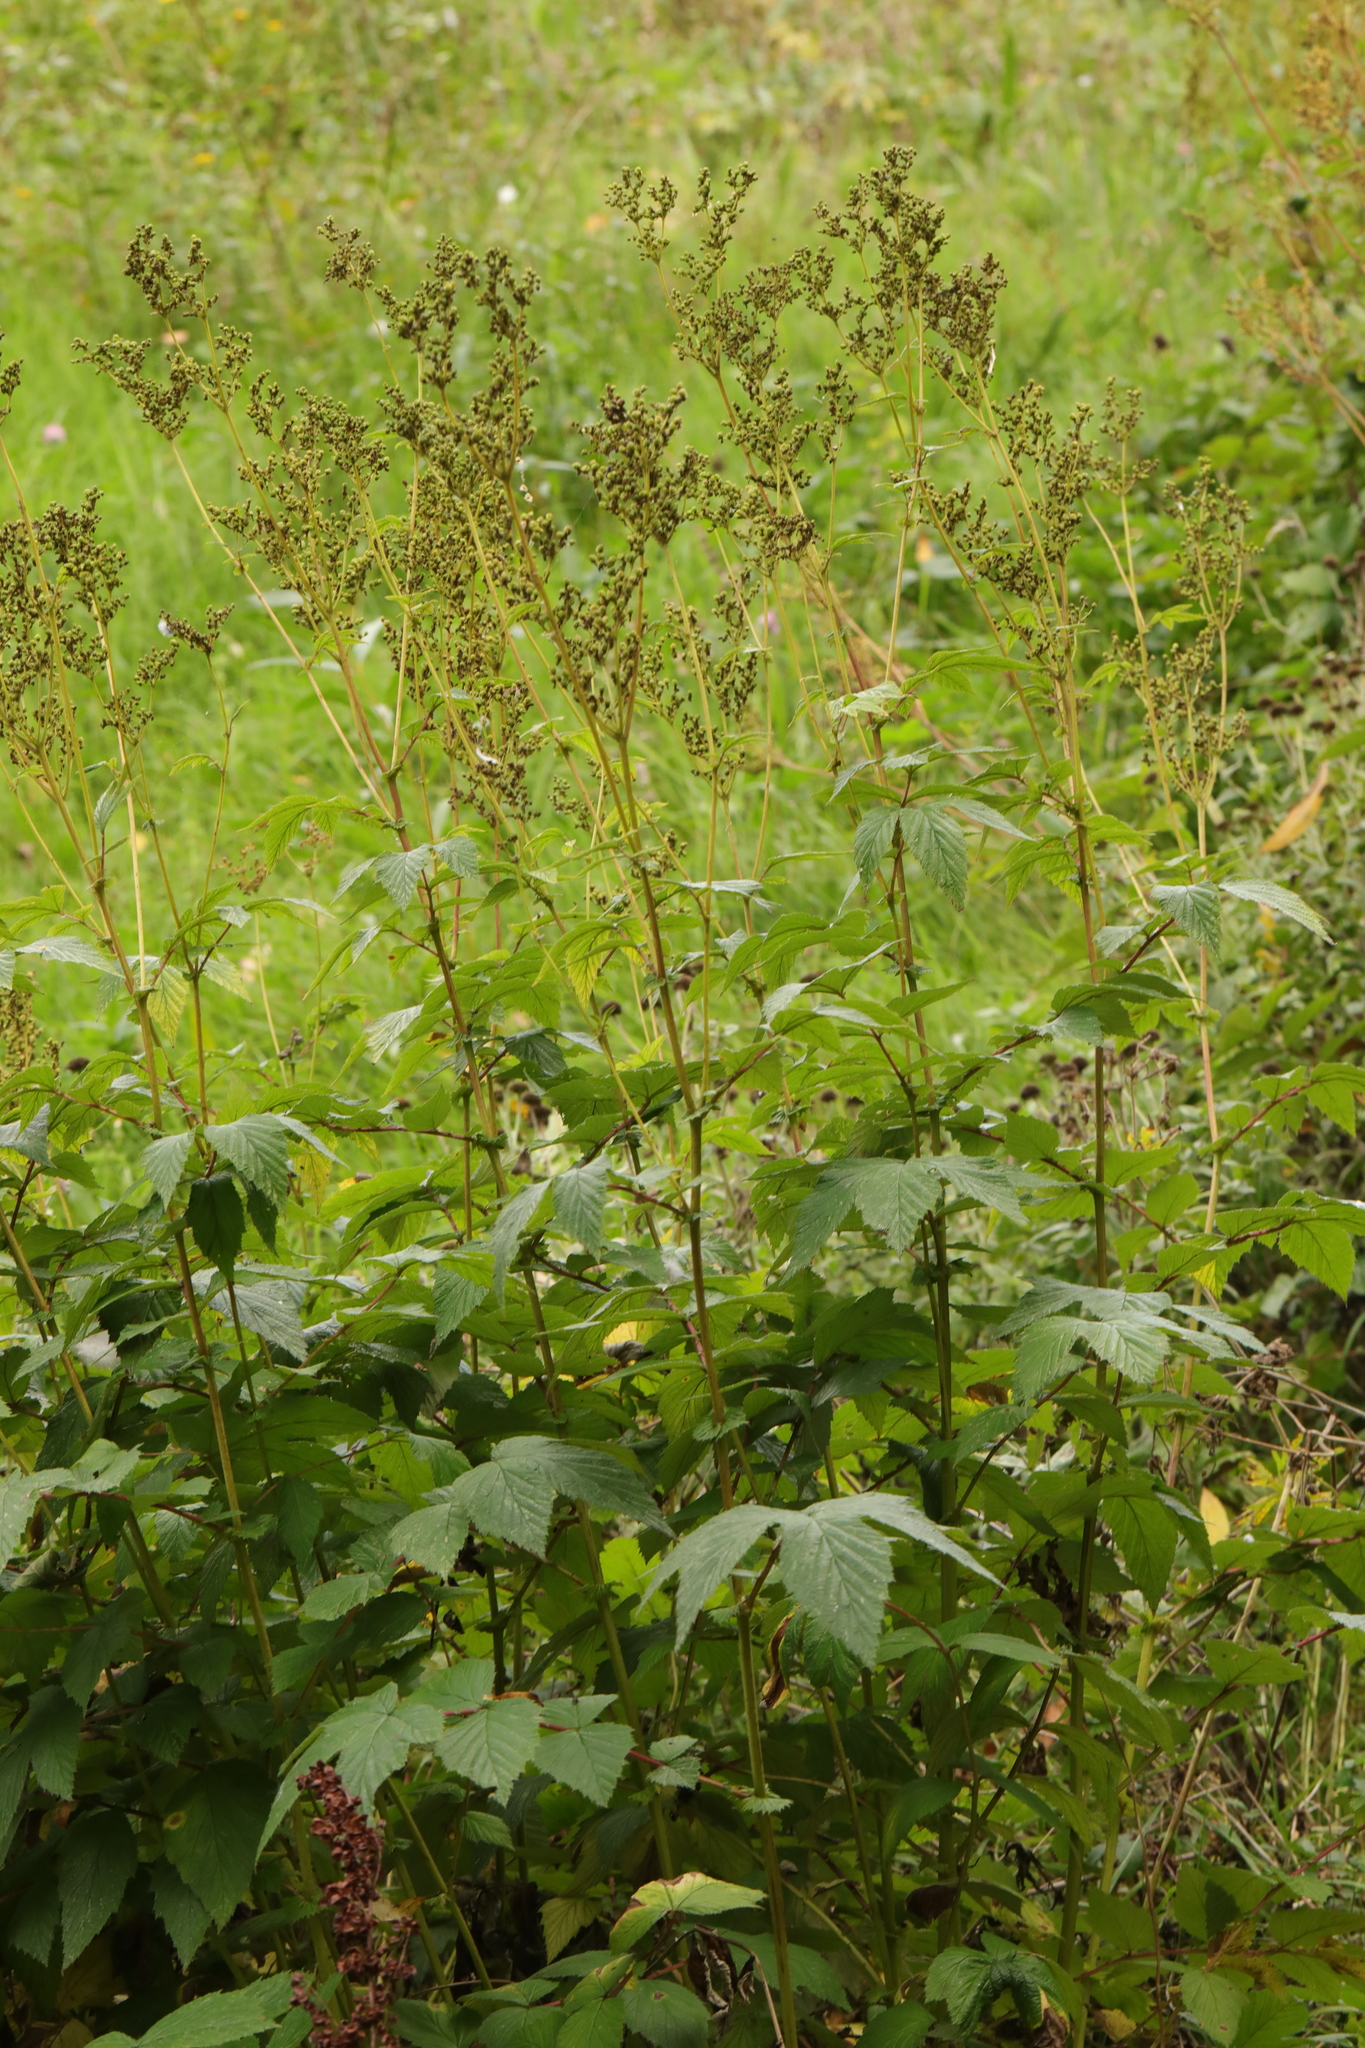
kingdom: Plantae
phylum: Tracheophyta
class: Magnoliopsida
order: Rosales
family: Rosaceae
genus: Filipendula
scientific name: Filipendula ulmaria
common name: Meadowsweet
